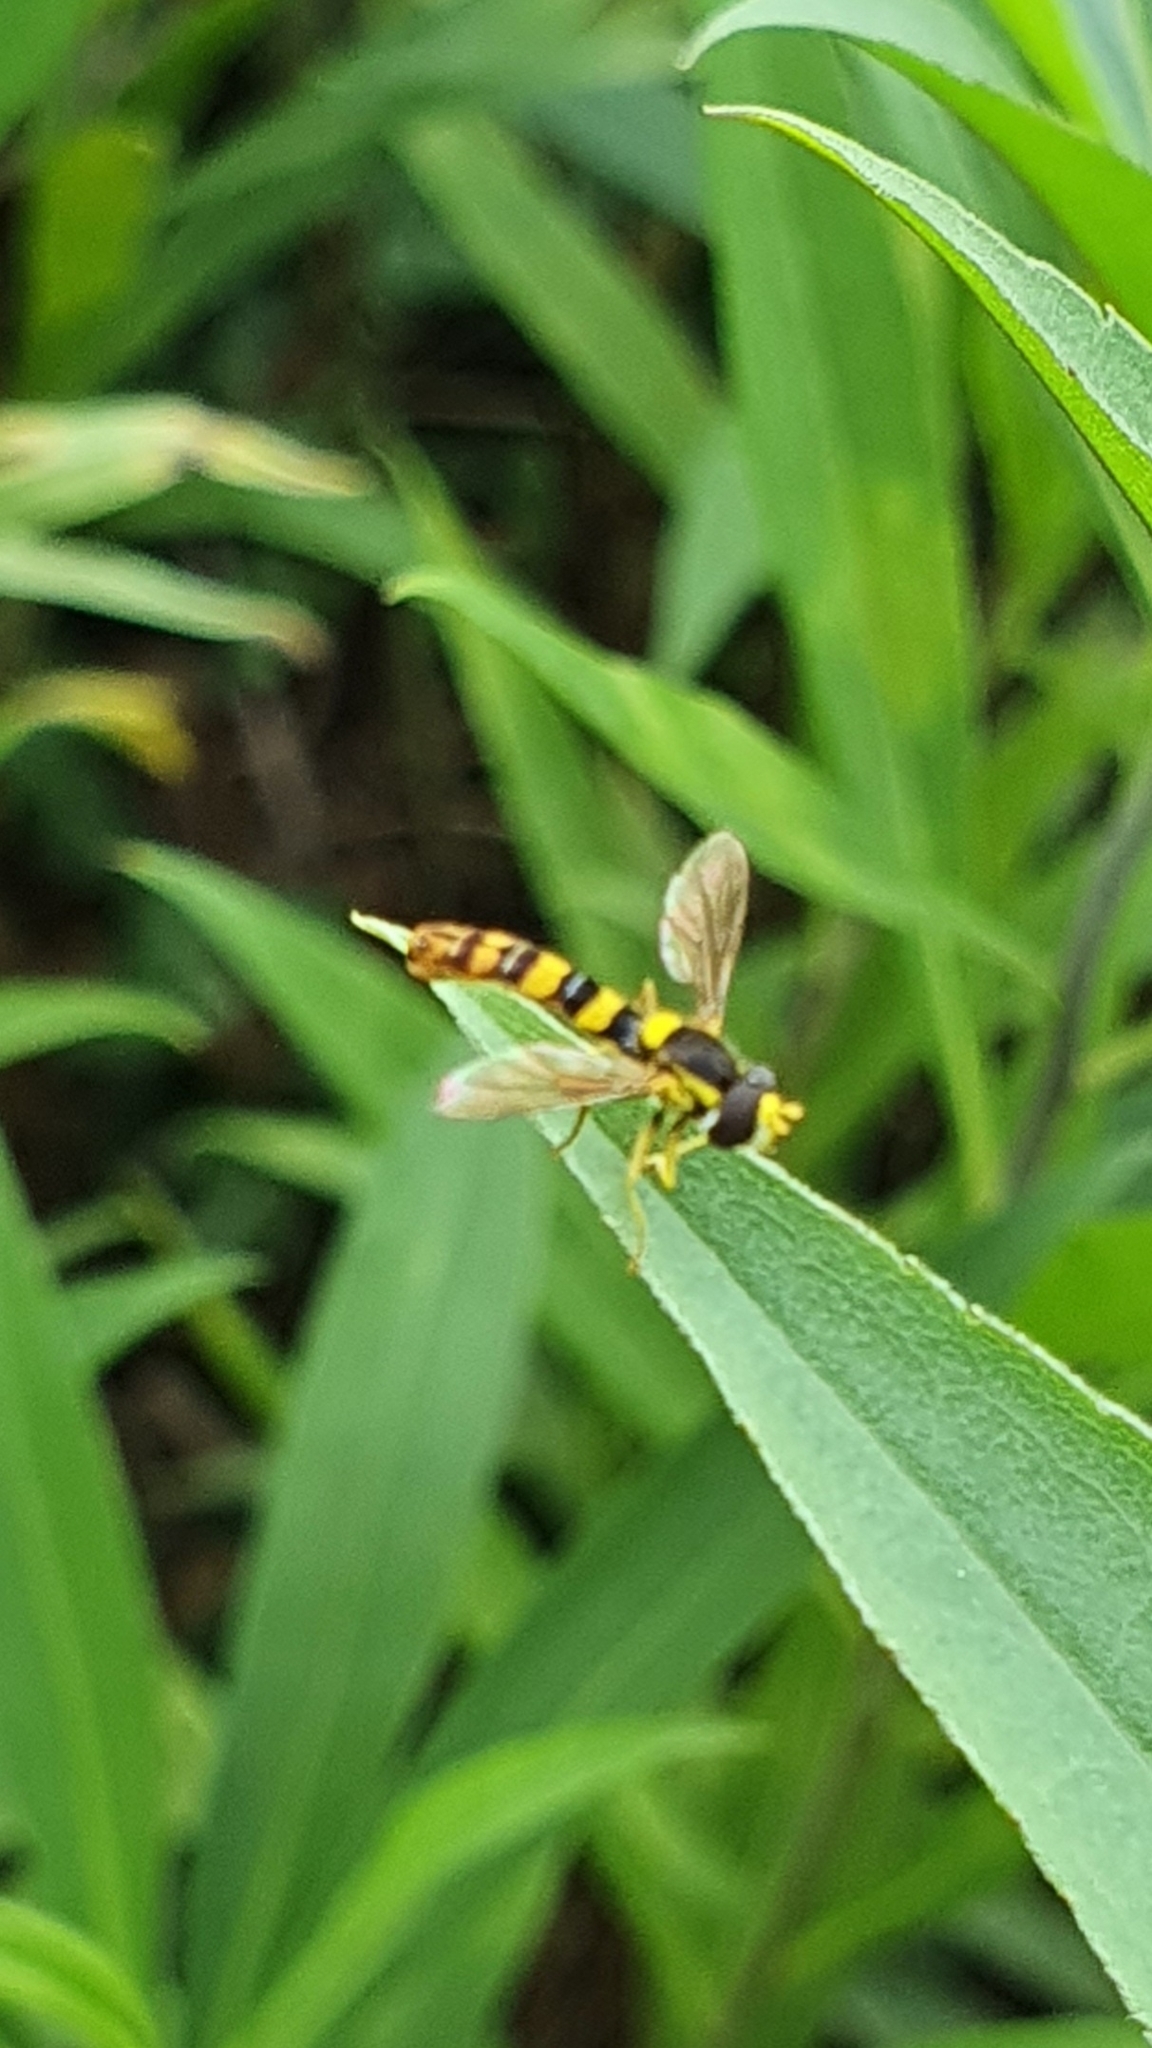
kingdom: Animalia
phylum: Arthropoda
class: Insecta
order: Diptera
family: Syrphidae
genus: Sphaerophoria
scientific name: Sphaerophoria scripta
